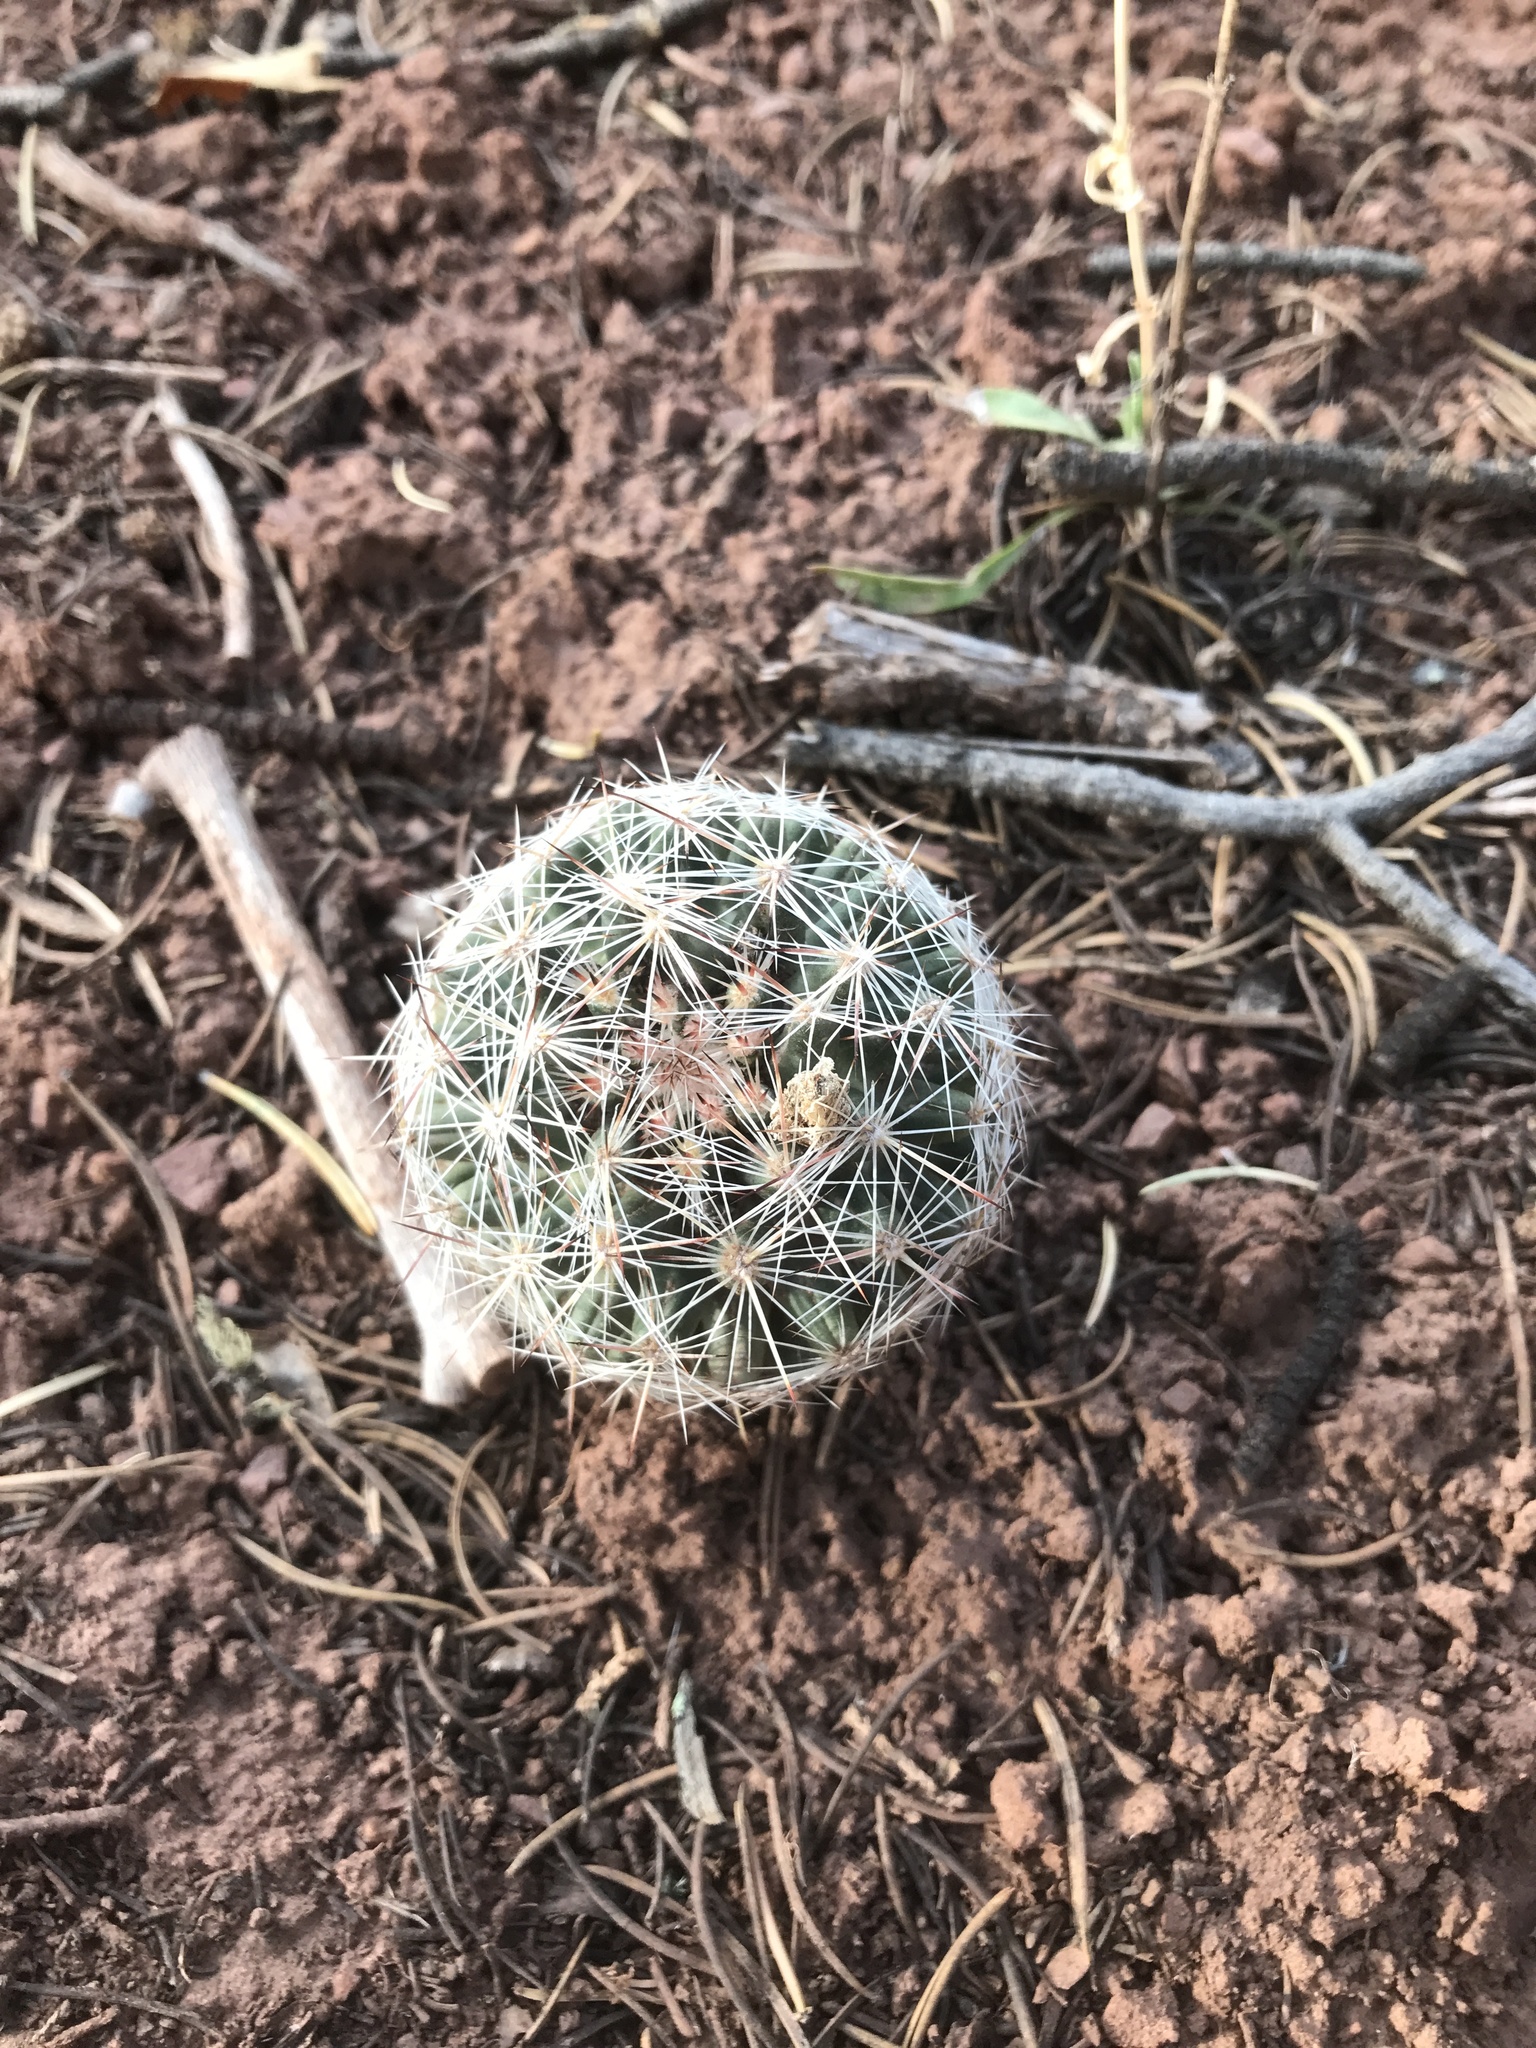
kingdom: Plantae
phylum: Tracheophyta
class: Magnoliopsida
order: Caryophyllales
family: Cactaceae
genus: Pelecyphora
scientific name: Pelecyphora vivipara
